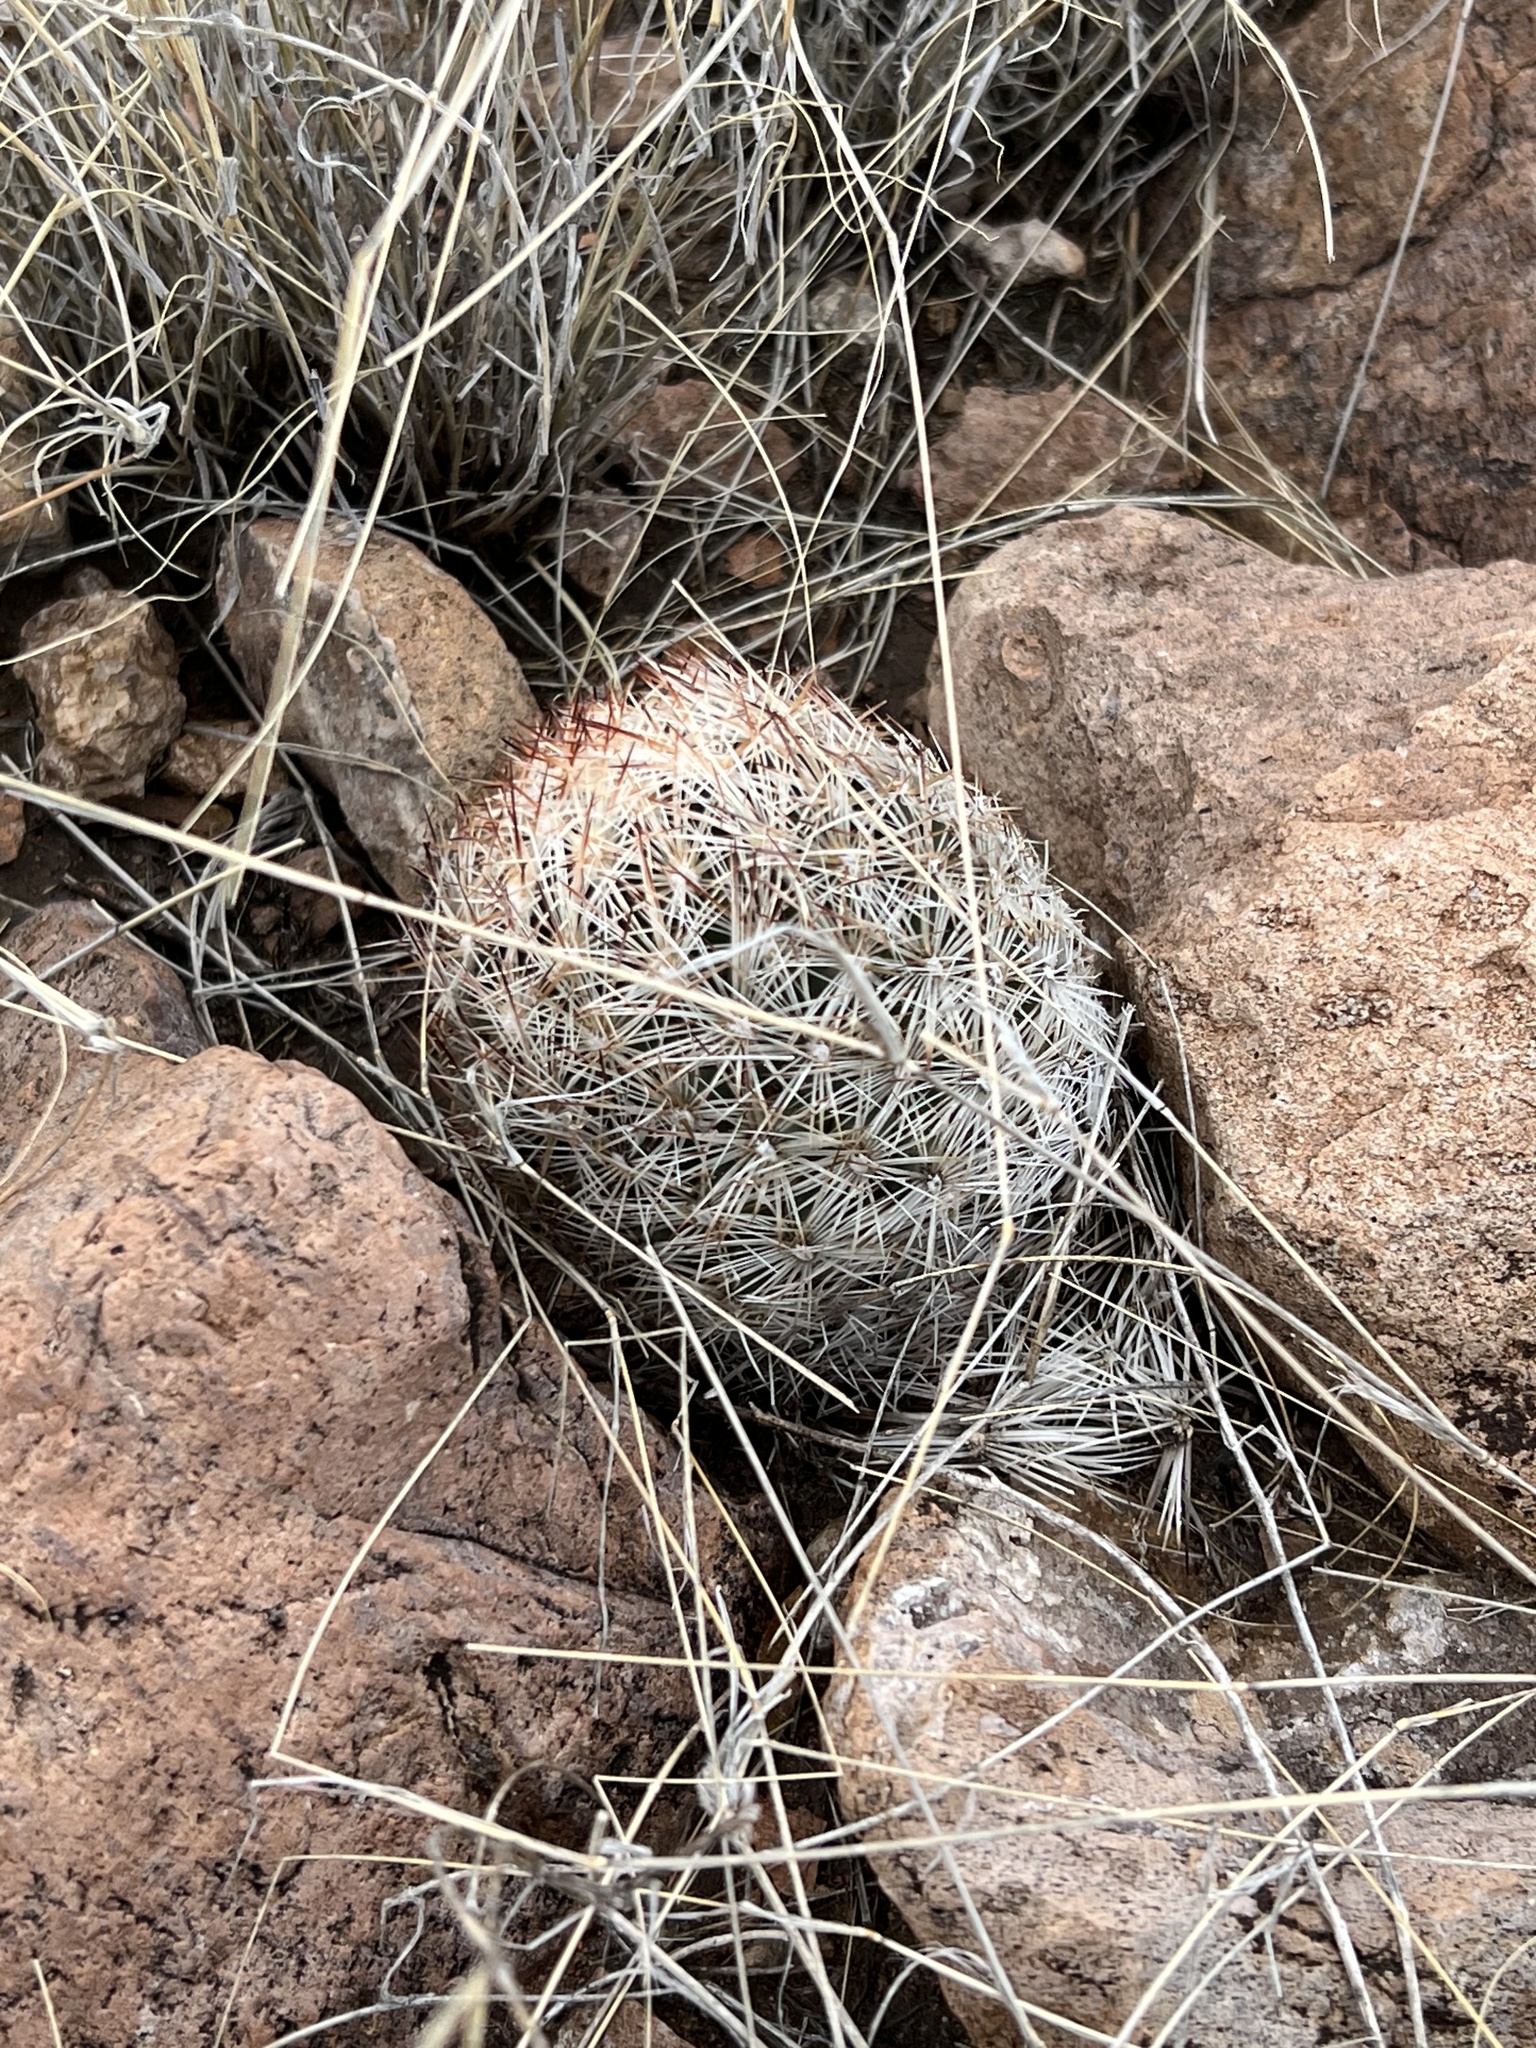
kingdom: Plantae
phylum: Tracheophyta
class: Magnoliopsida
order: Caryophyllales
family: Cactaceae
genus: Pelecyphora
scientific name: Pelecyphora vivipara
